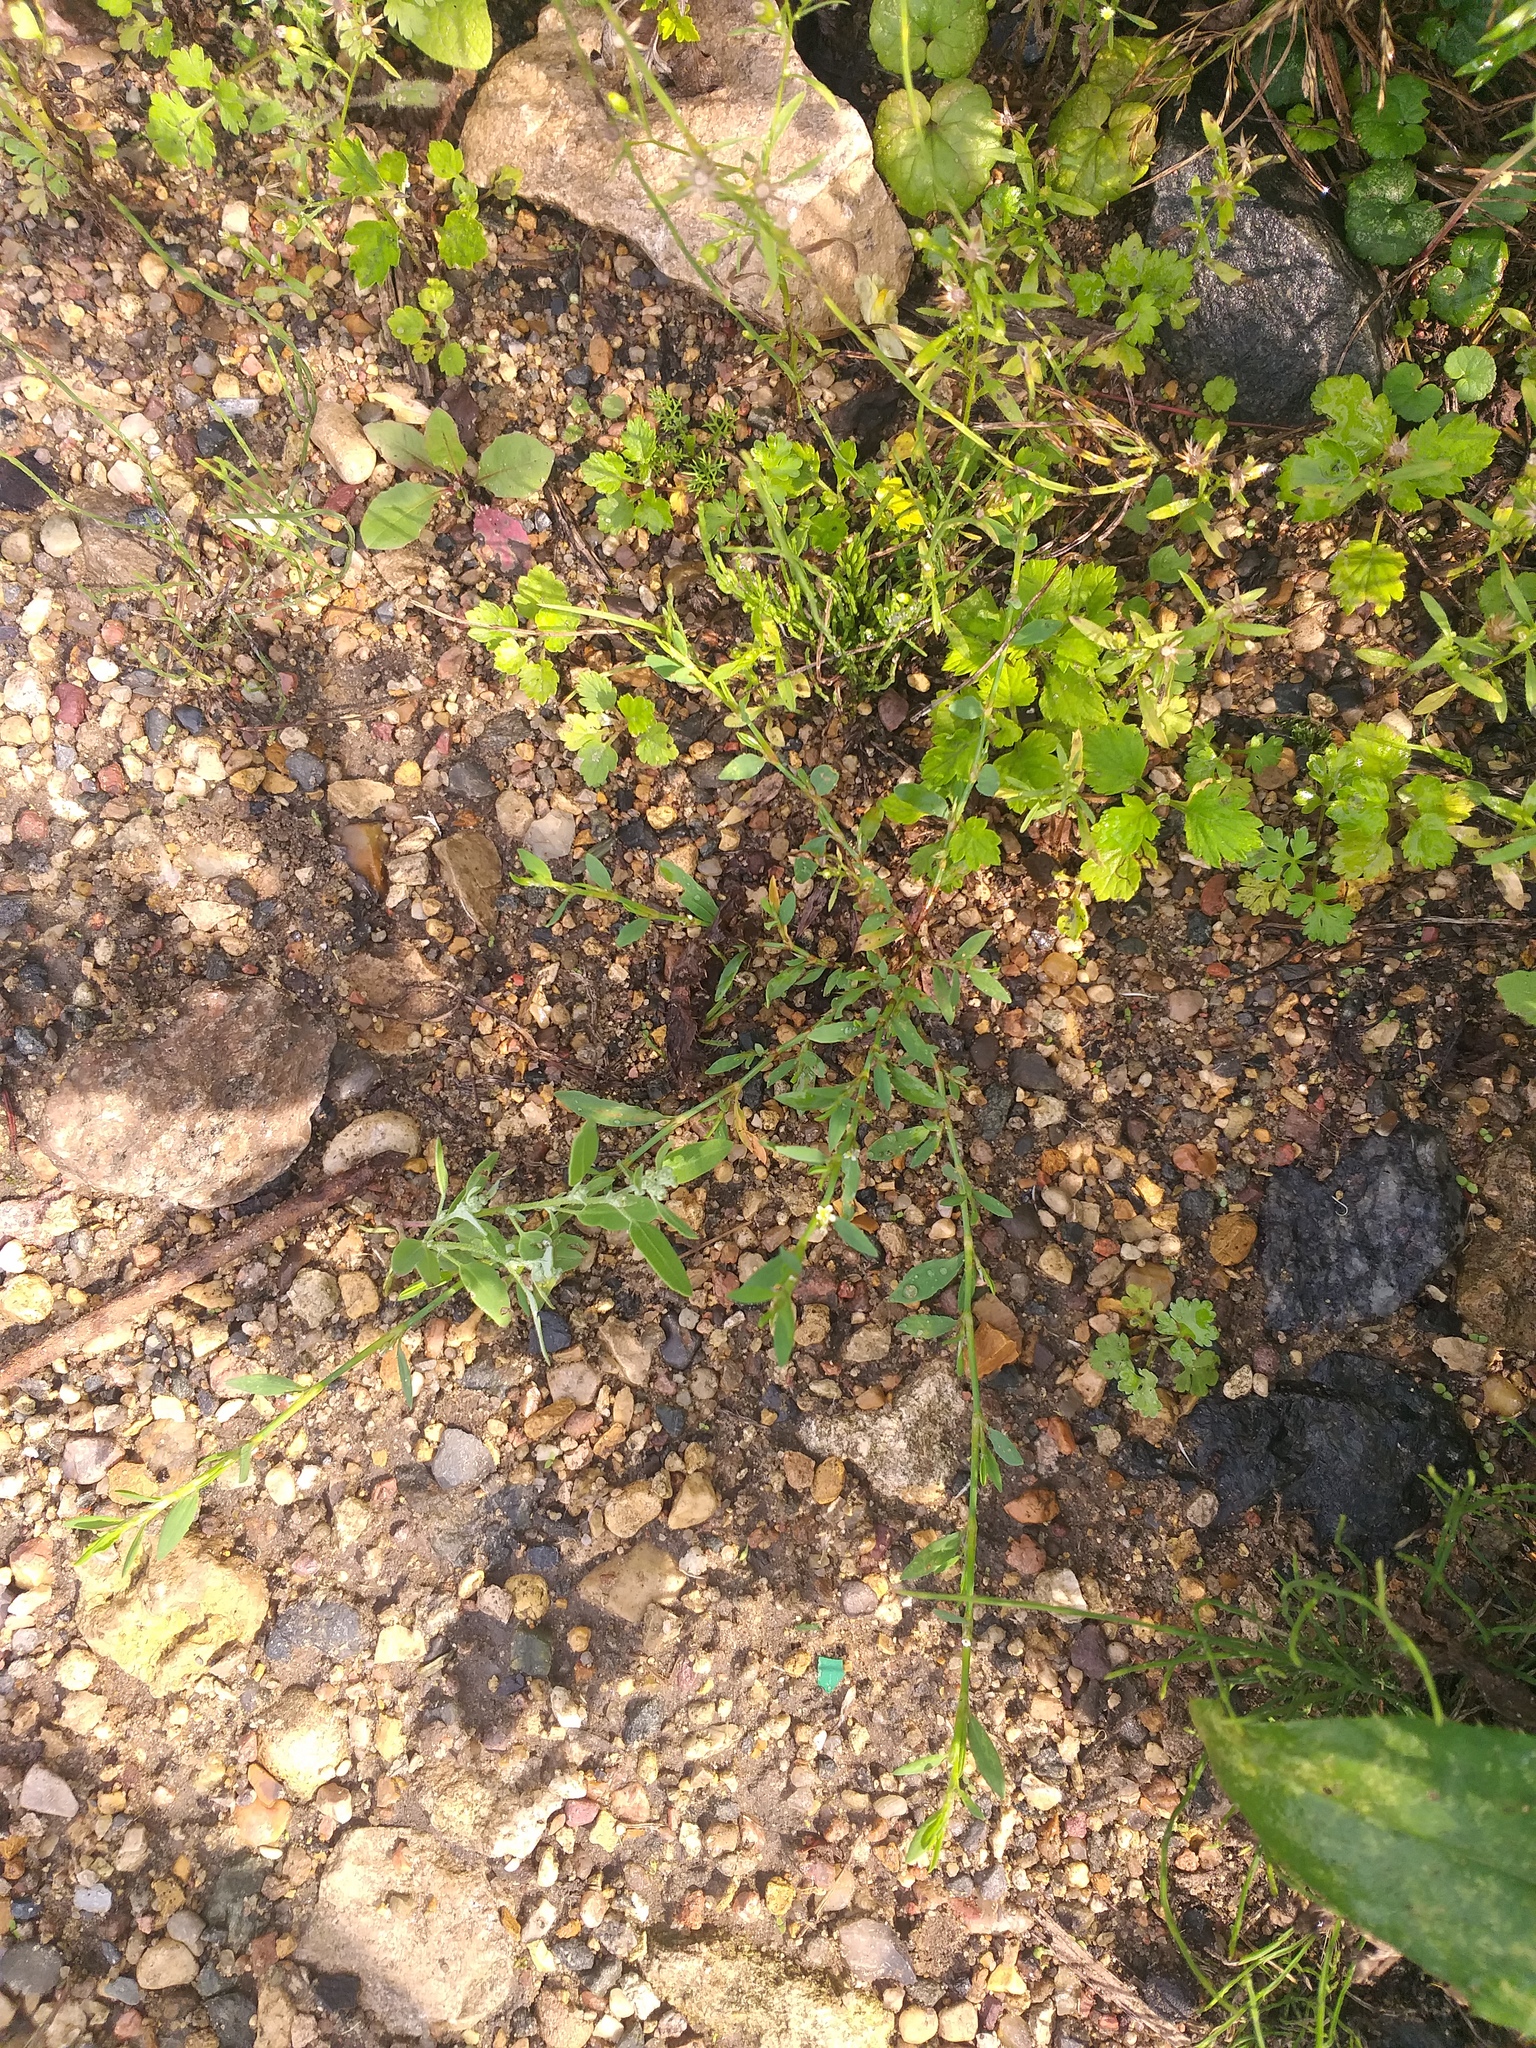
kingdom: Plantae
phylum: Tracheophyta
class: Magnoliopsida
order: Caryophyllales
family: Polygonaceae
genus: Polygonum
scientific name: Polygonum
